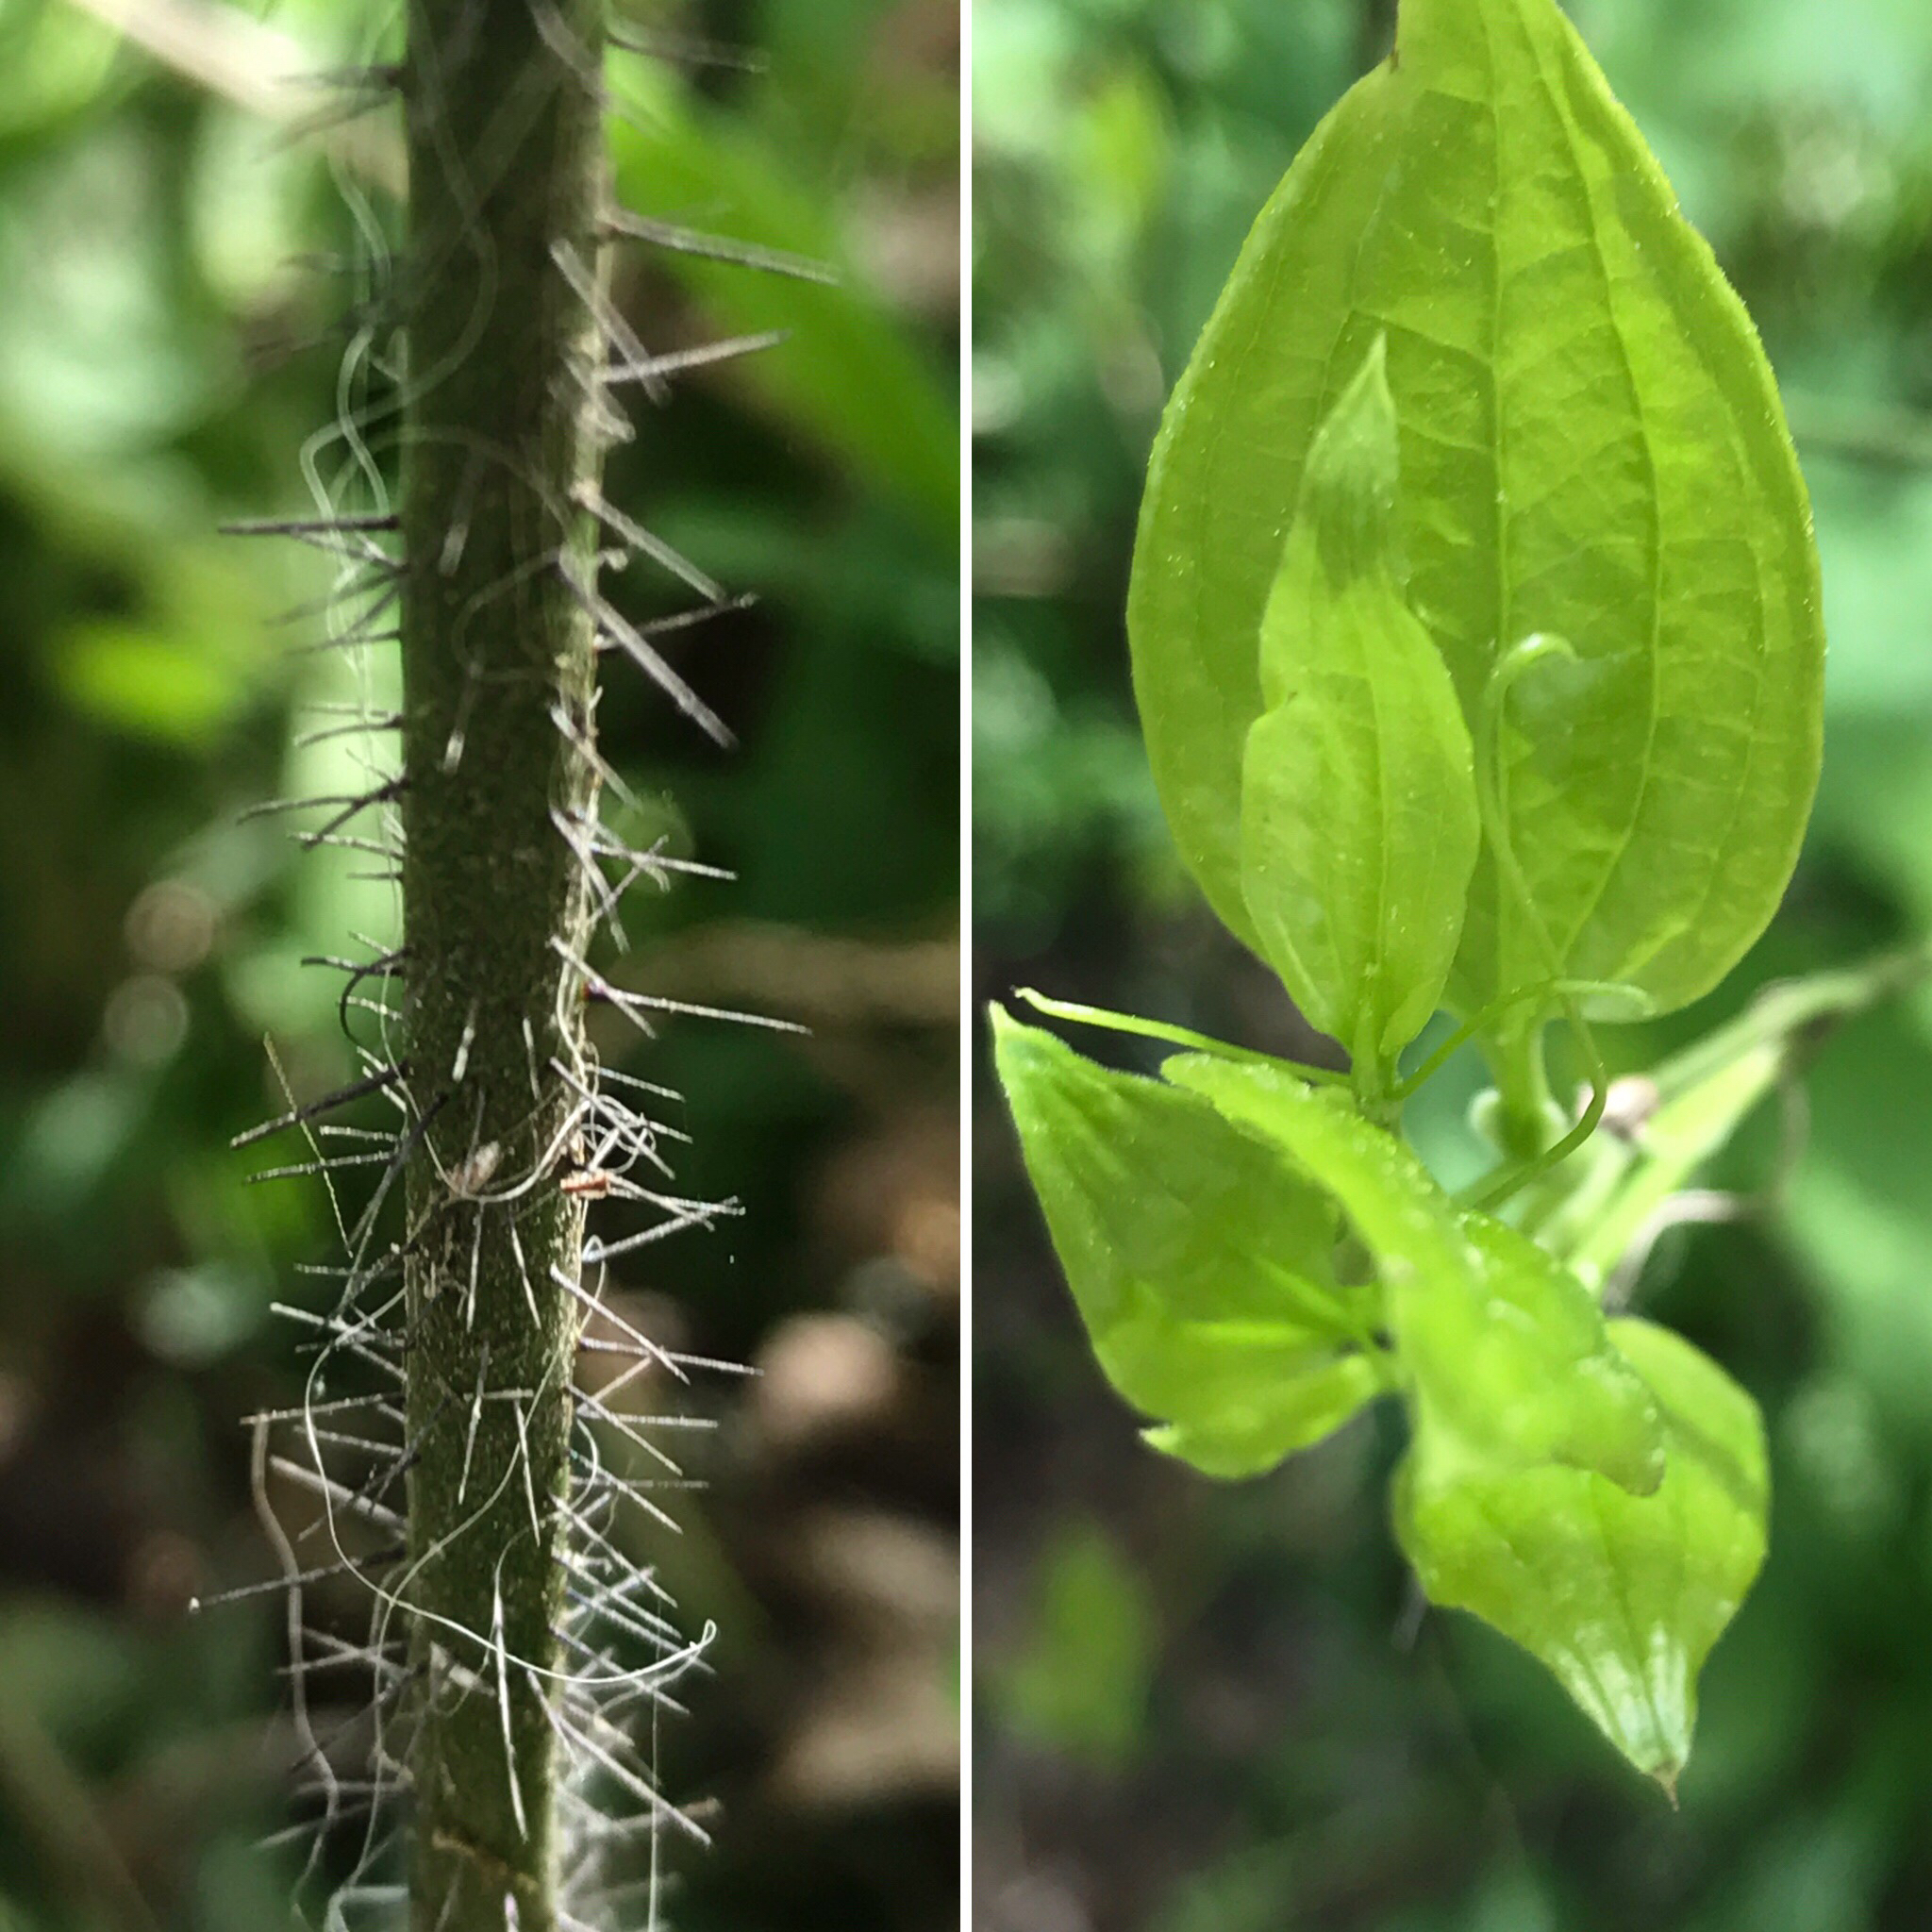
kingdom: Plantae
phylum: Tracheophyta
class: Liliopsida
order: Liliales
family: Smilacaceae
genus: Smilax
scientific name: Smilax tamnoides
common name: Hellfetter
